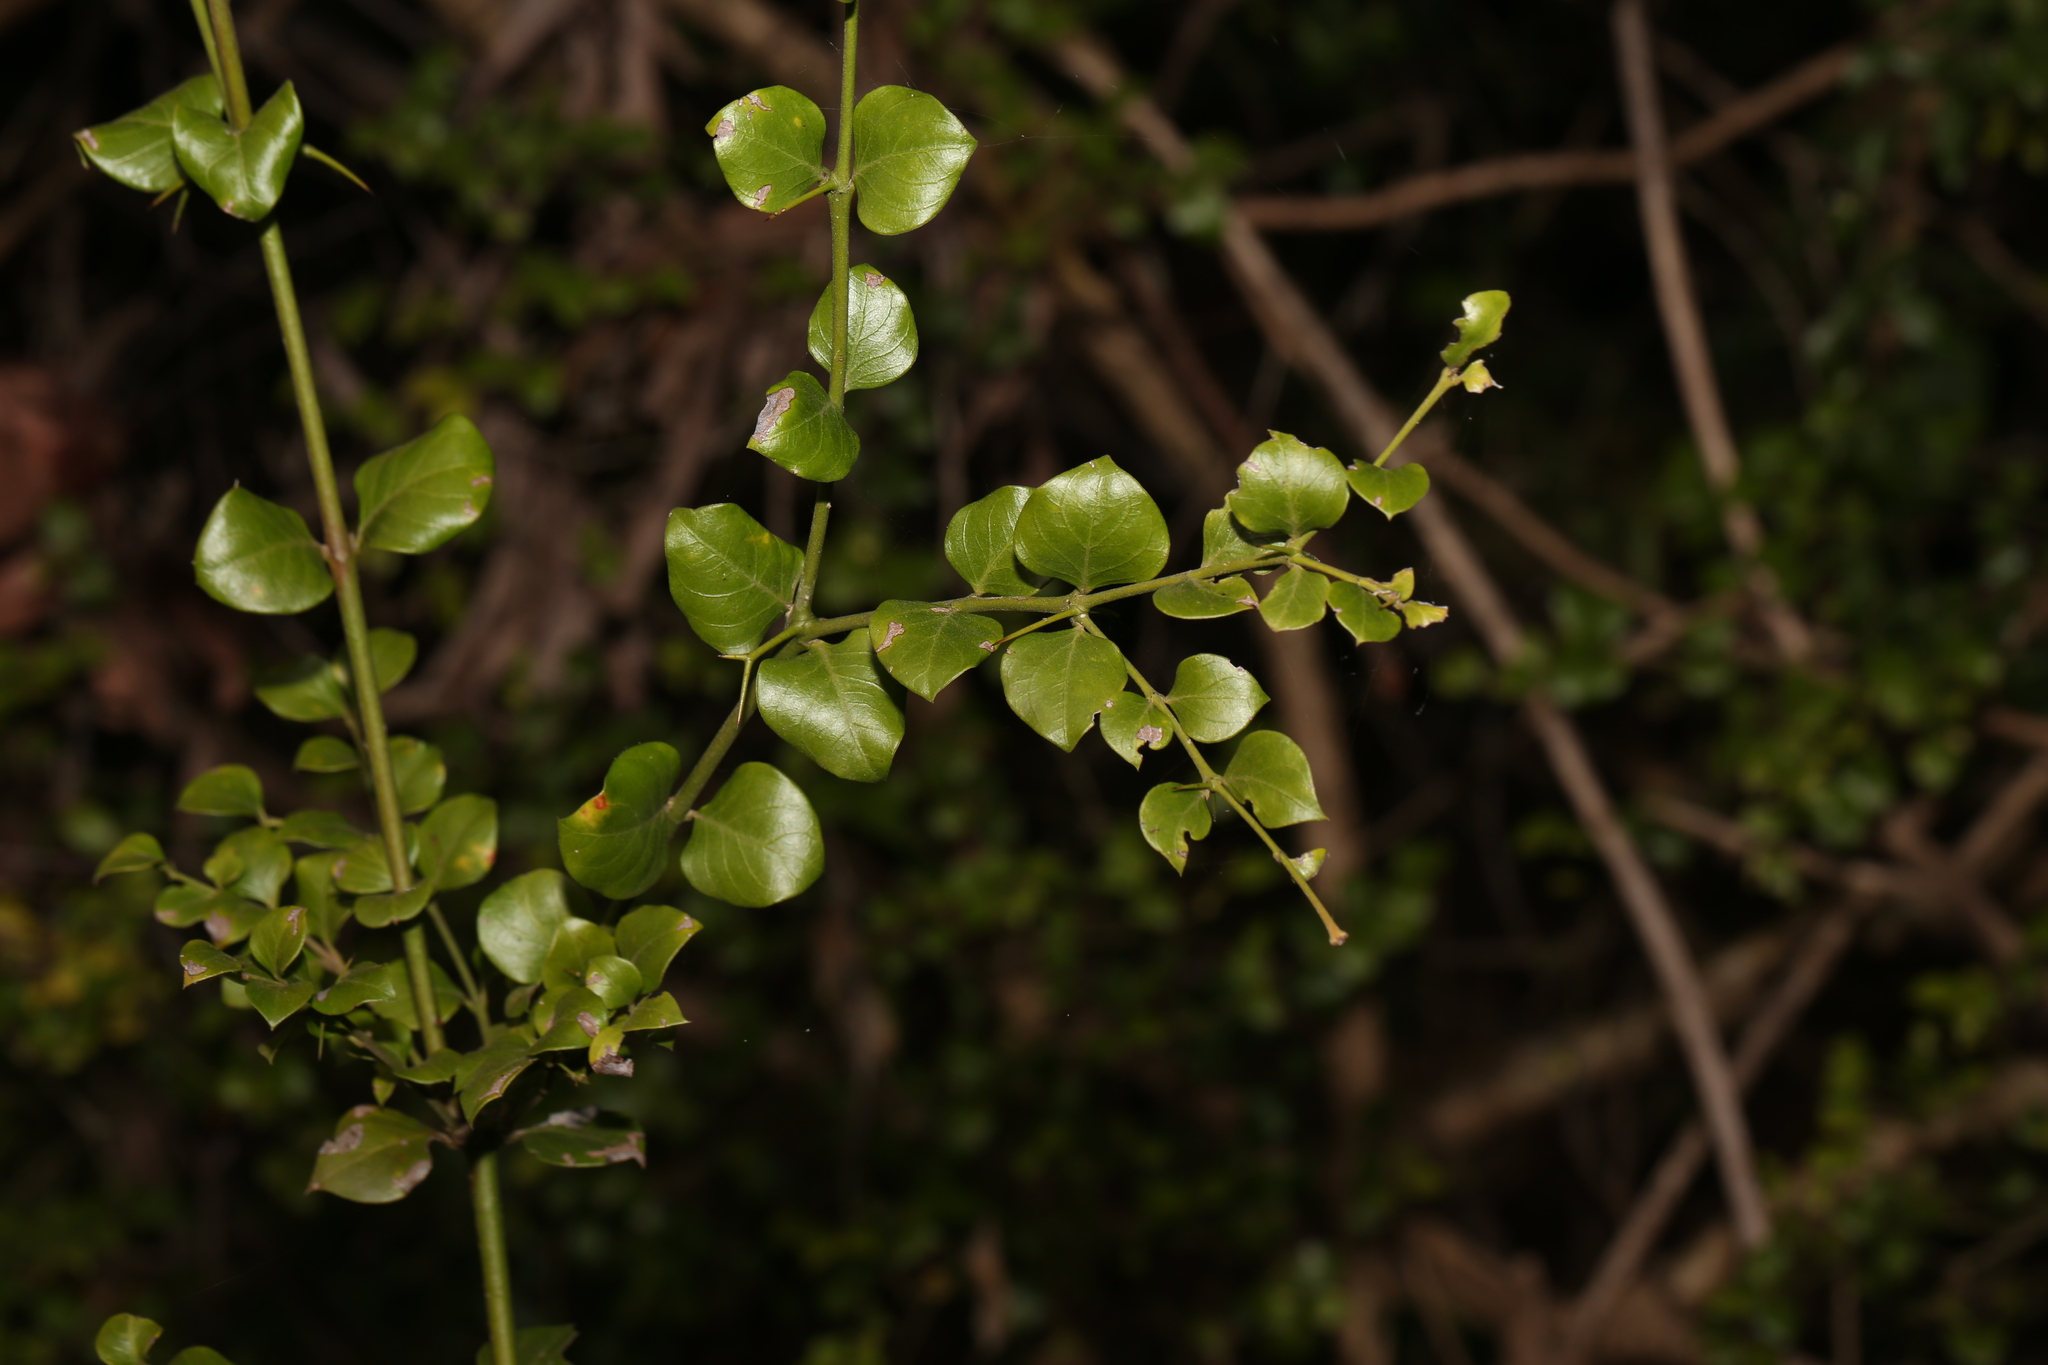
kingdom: Plantae
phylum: Tracheophyta
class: Magnoliopsida
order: Gentianales
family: Apocynaceae
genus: Carissa
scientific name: Carissa ovata
